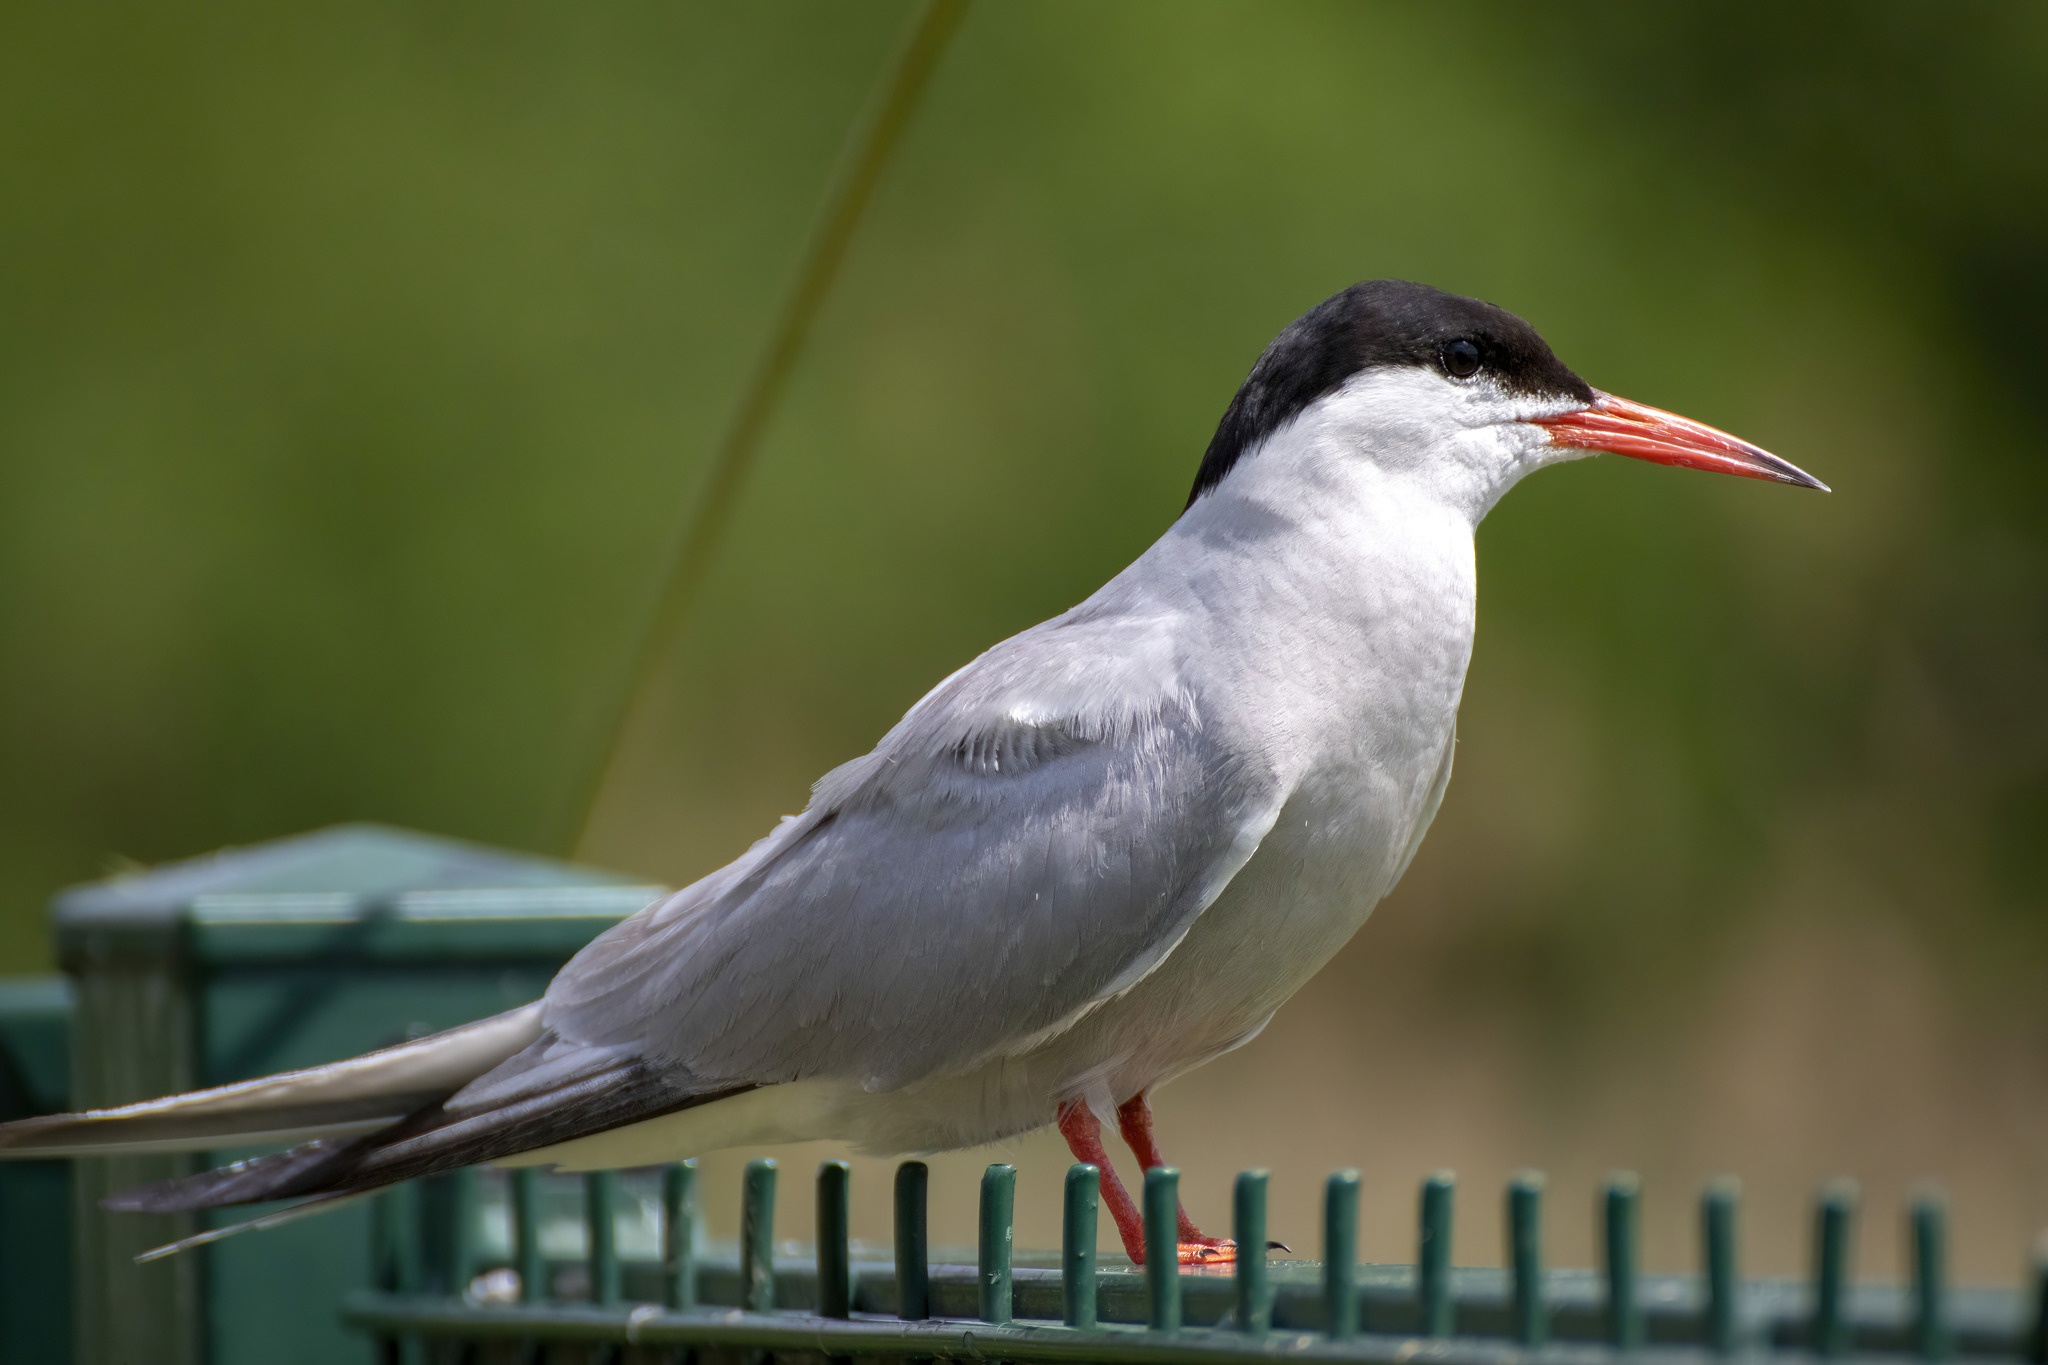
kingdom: Animalia
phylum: Chordata
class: Aves
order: Charadriiformes
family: Laridae
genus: Sterna
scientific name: Sterna hirundo
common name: Common tern
